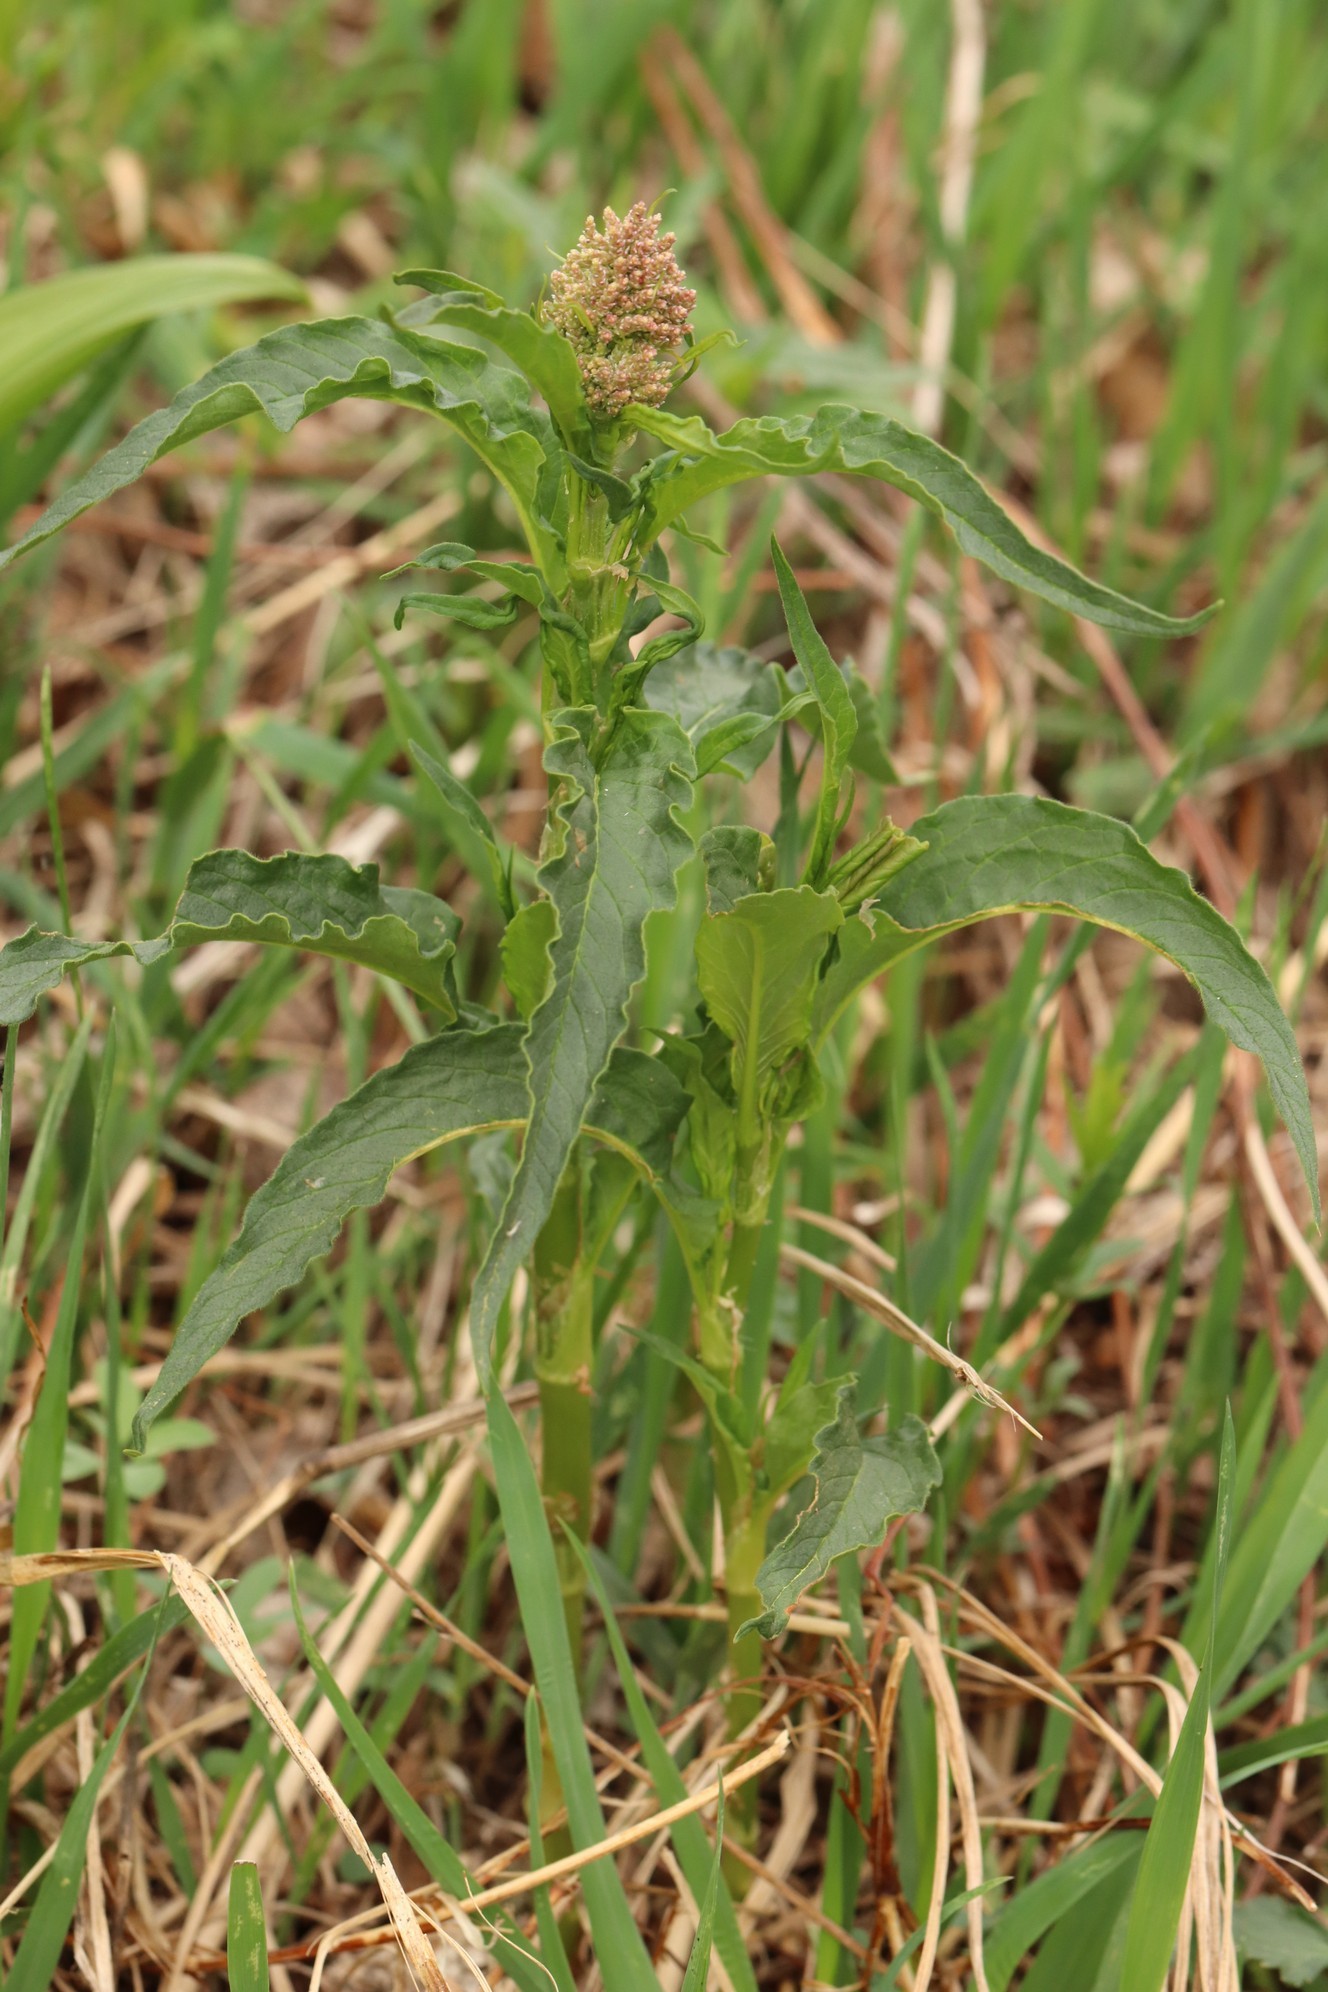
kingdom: Plantae
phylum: Tracheophyta
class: Magnoliopsida
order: Caryophyllales
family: Polygonaceae
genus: Koenigia
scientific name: Koenigia alpina
